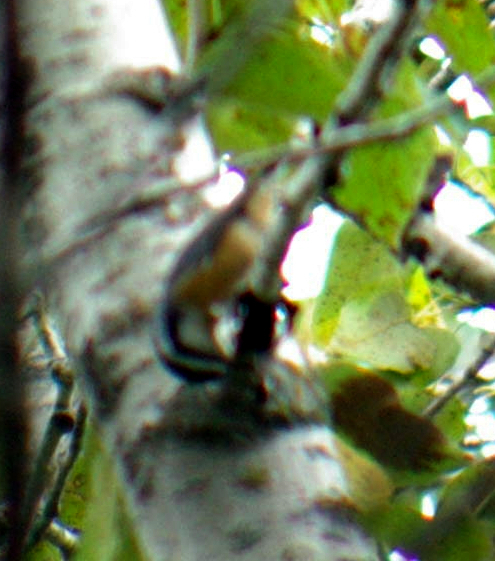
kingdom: Animalia
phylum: Chordata
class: Aves
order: Passeriformes
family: Sittidae
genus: Sitta
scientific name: Sitta canadensis
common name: Red-breasted nuthatch
